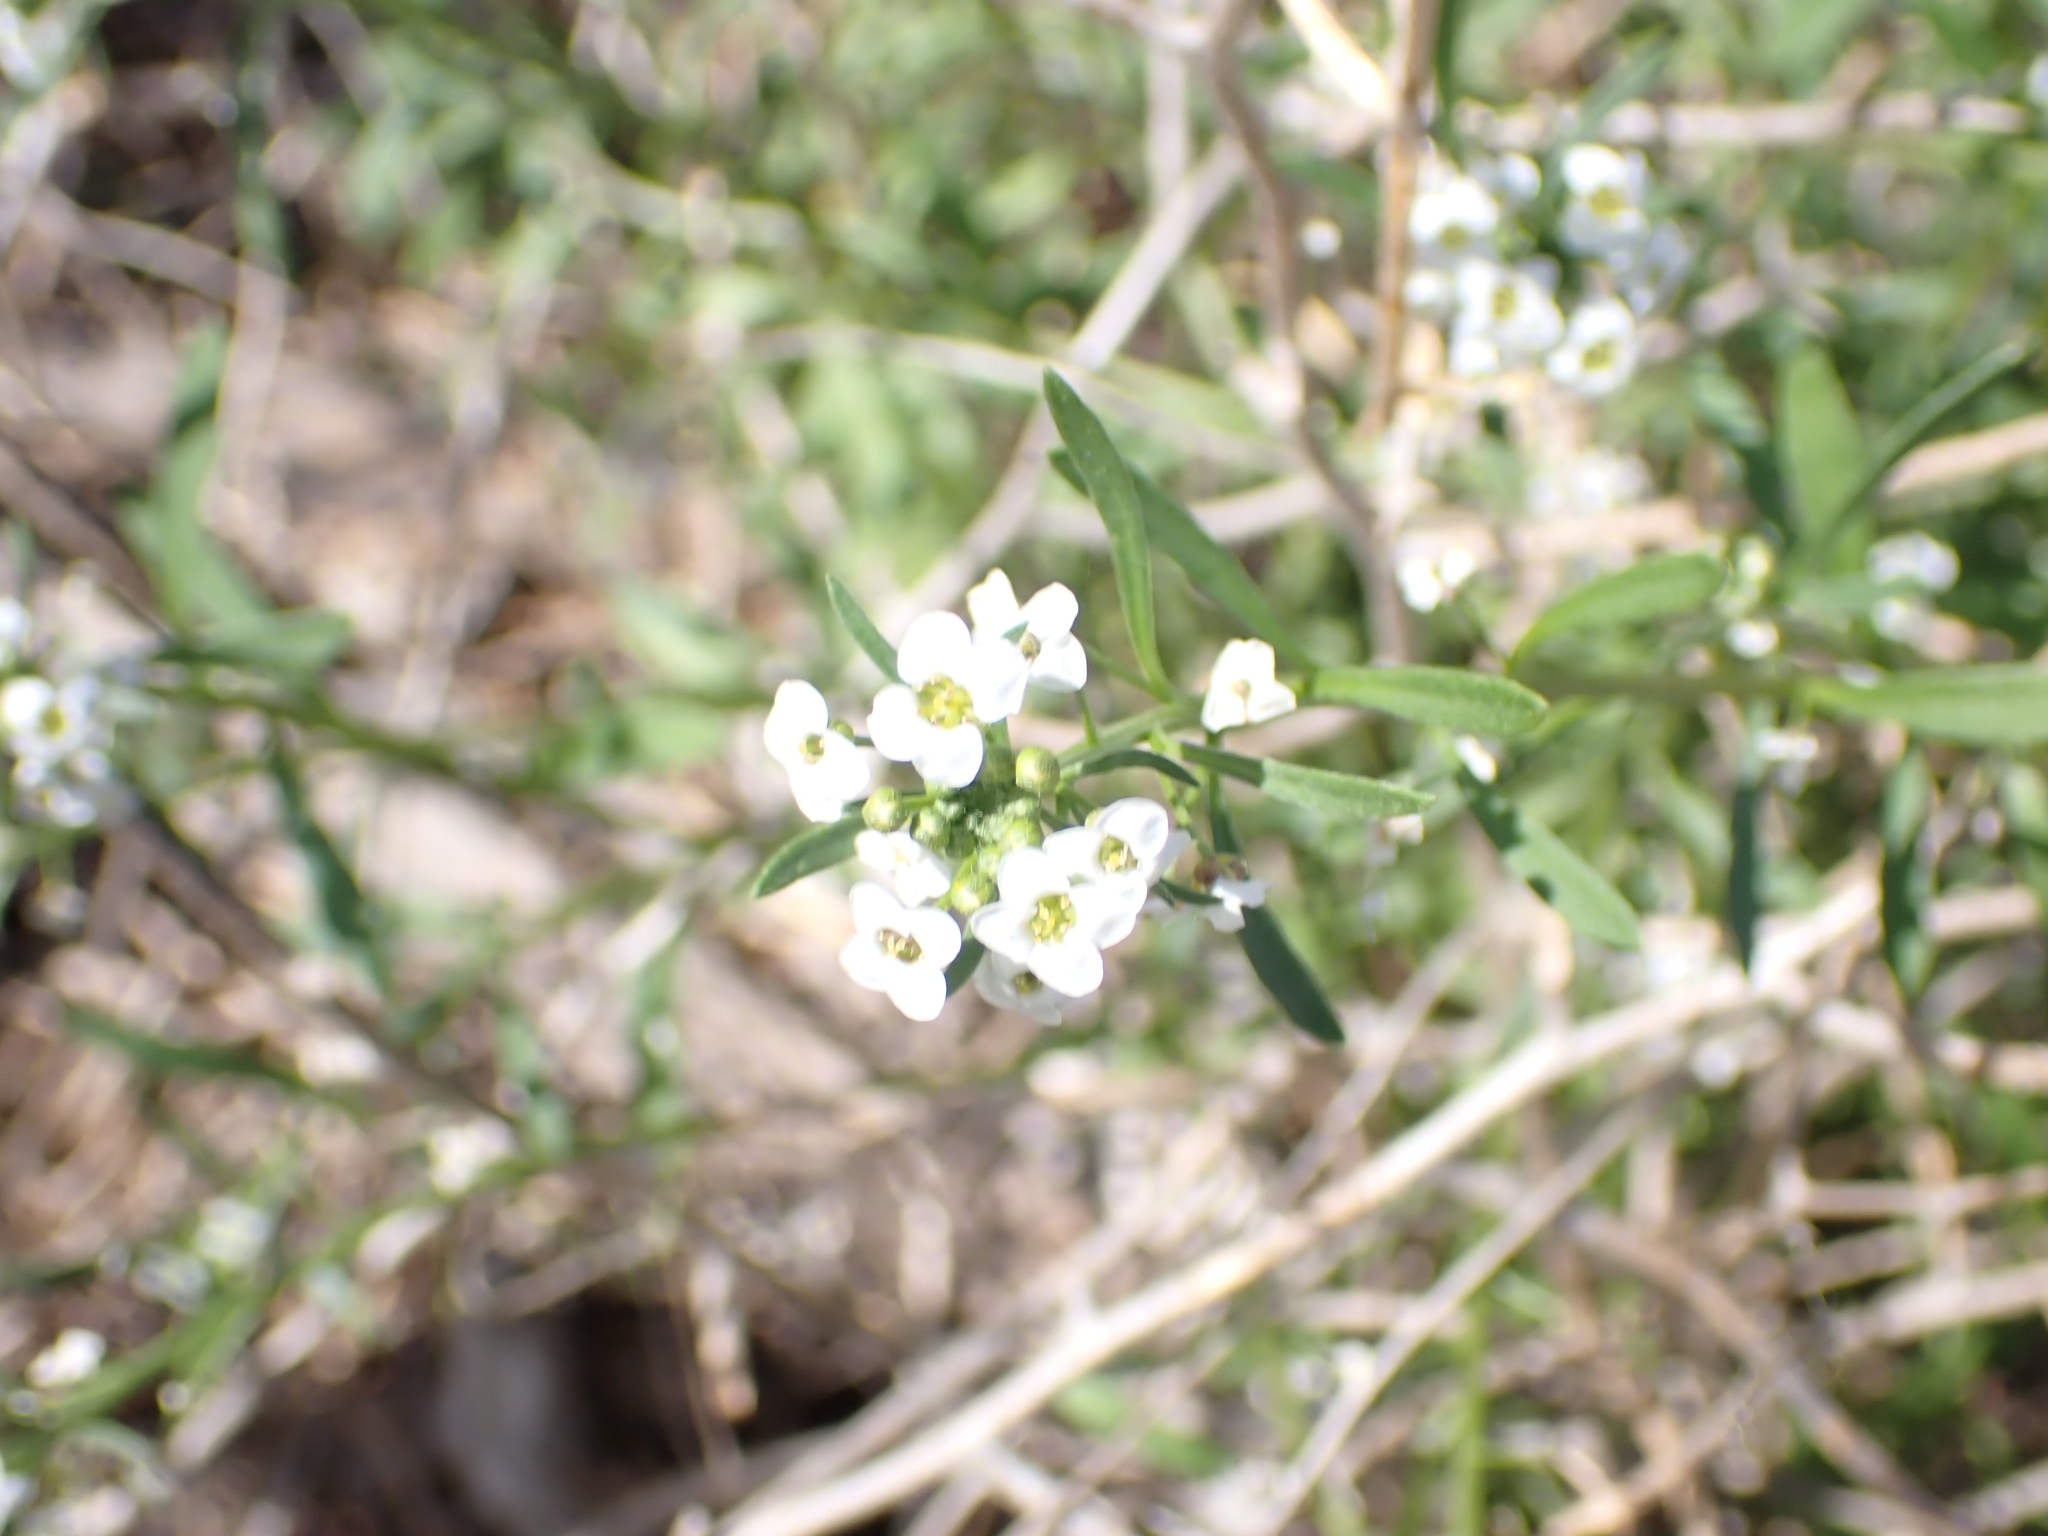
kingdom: Plantae
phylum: Tracheophyta
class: Magnoliopsida
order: Brassicales
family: Brassicaceae
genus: Lobularia
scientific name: Lobularia maritima
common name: Sweet alison
